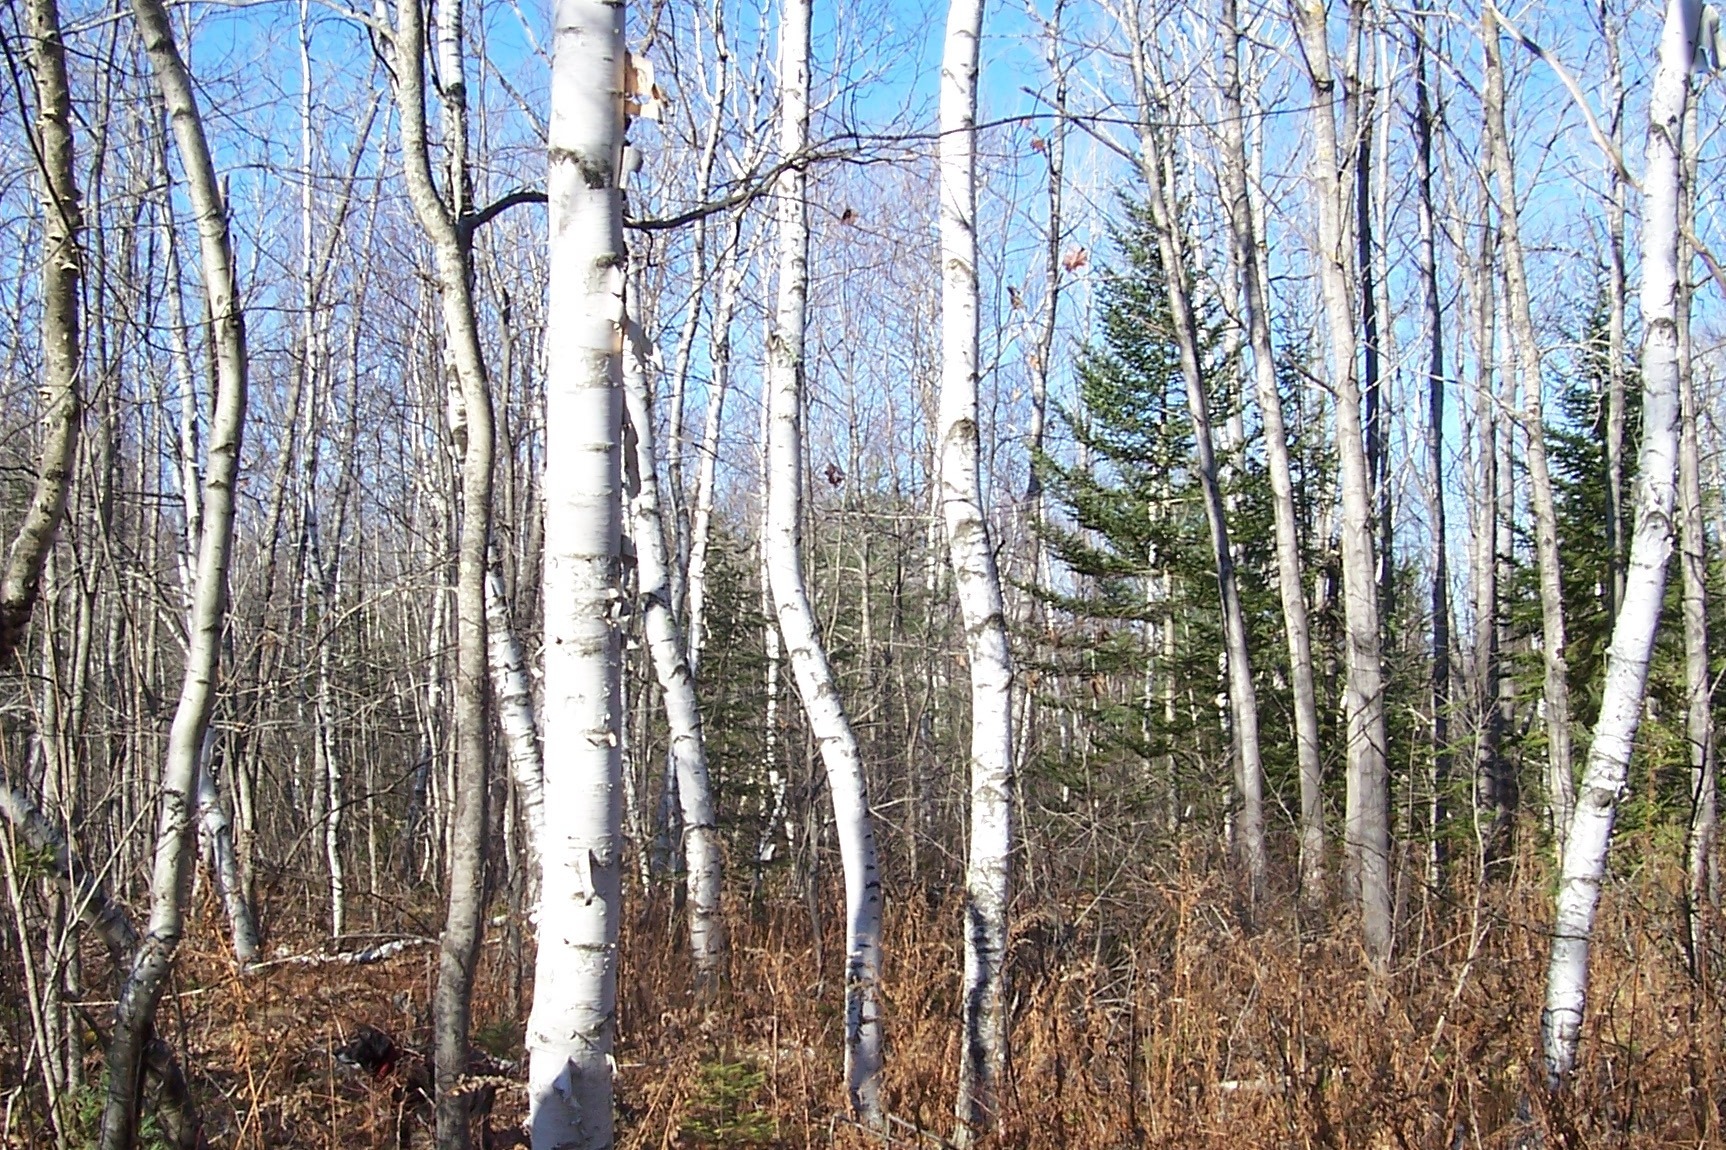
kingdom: Plantae
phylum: Tracheophyta
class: Magnoliopsida
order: Fagales
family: Betulaceae
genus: Betula
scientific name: Betula papyrifera
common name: Paper birch
